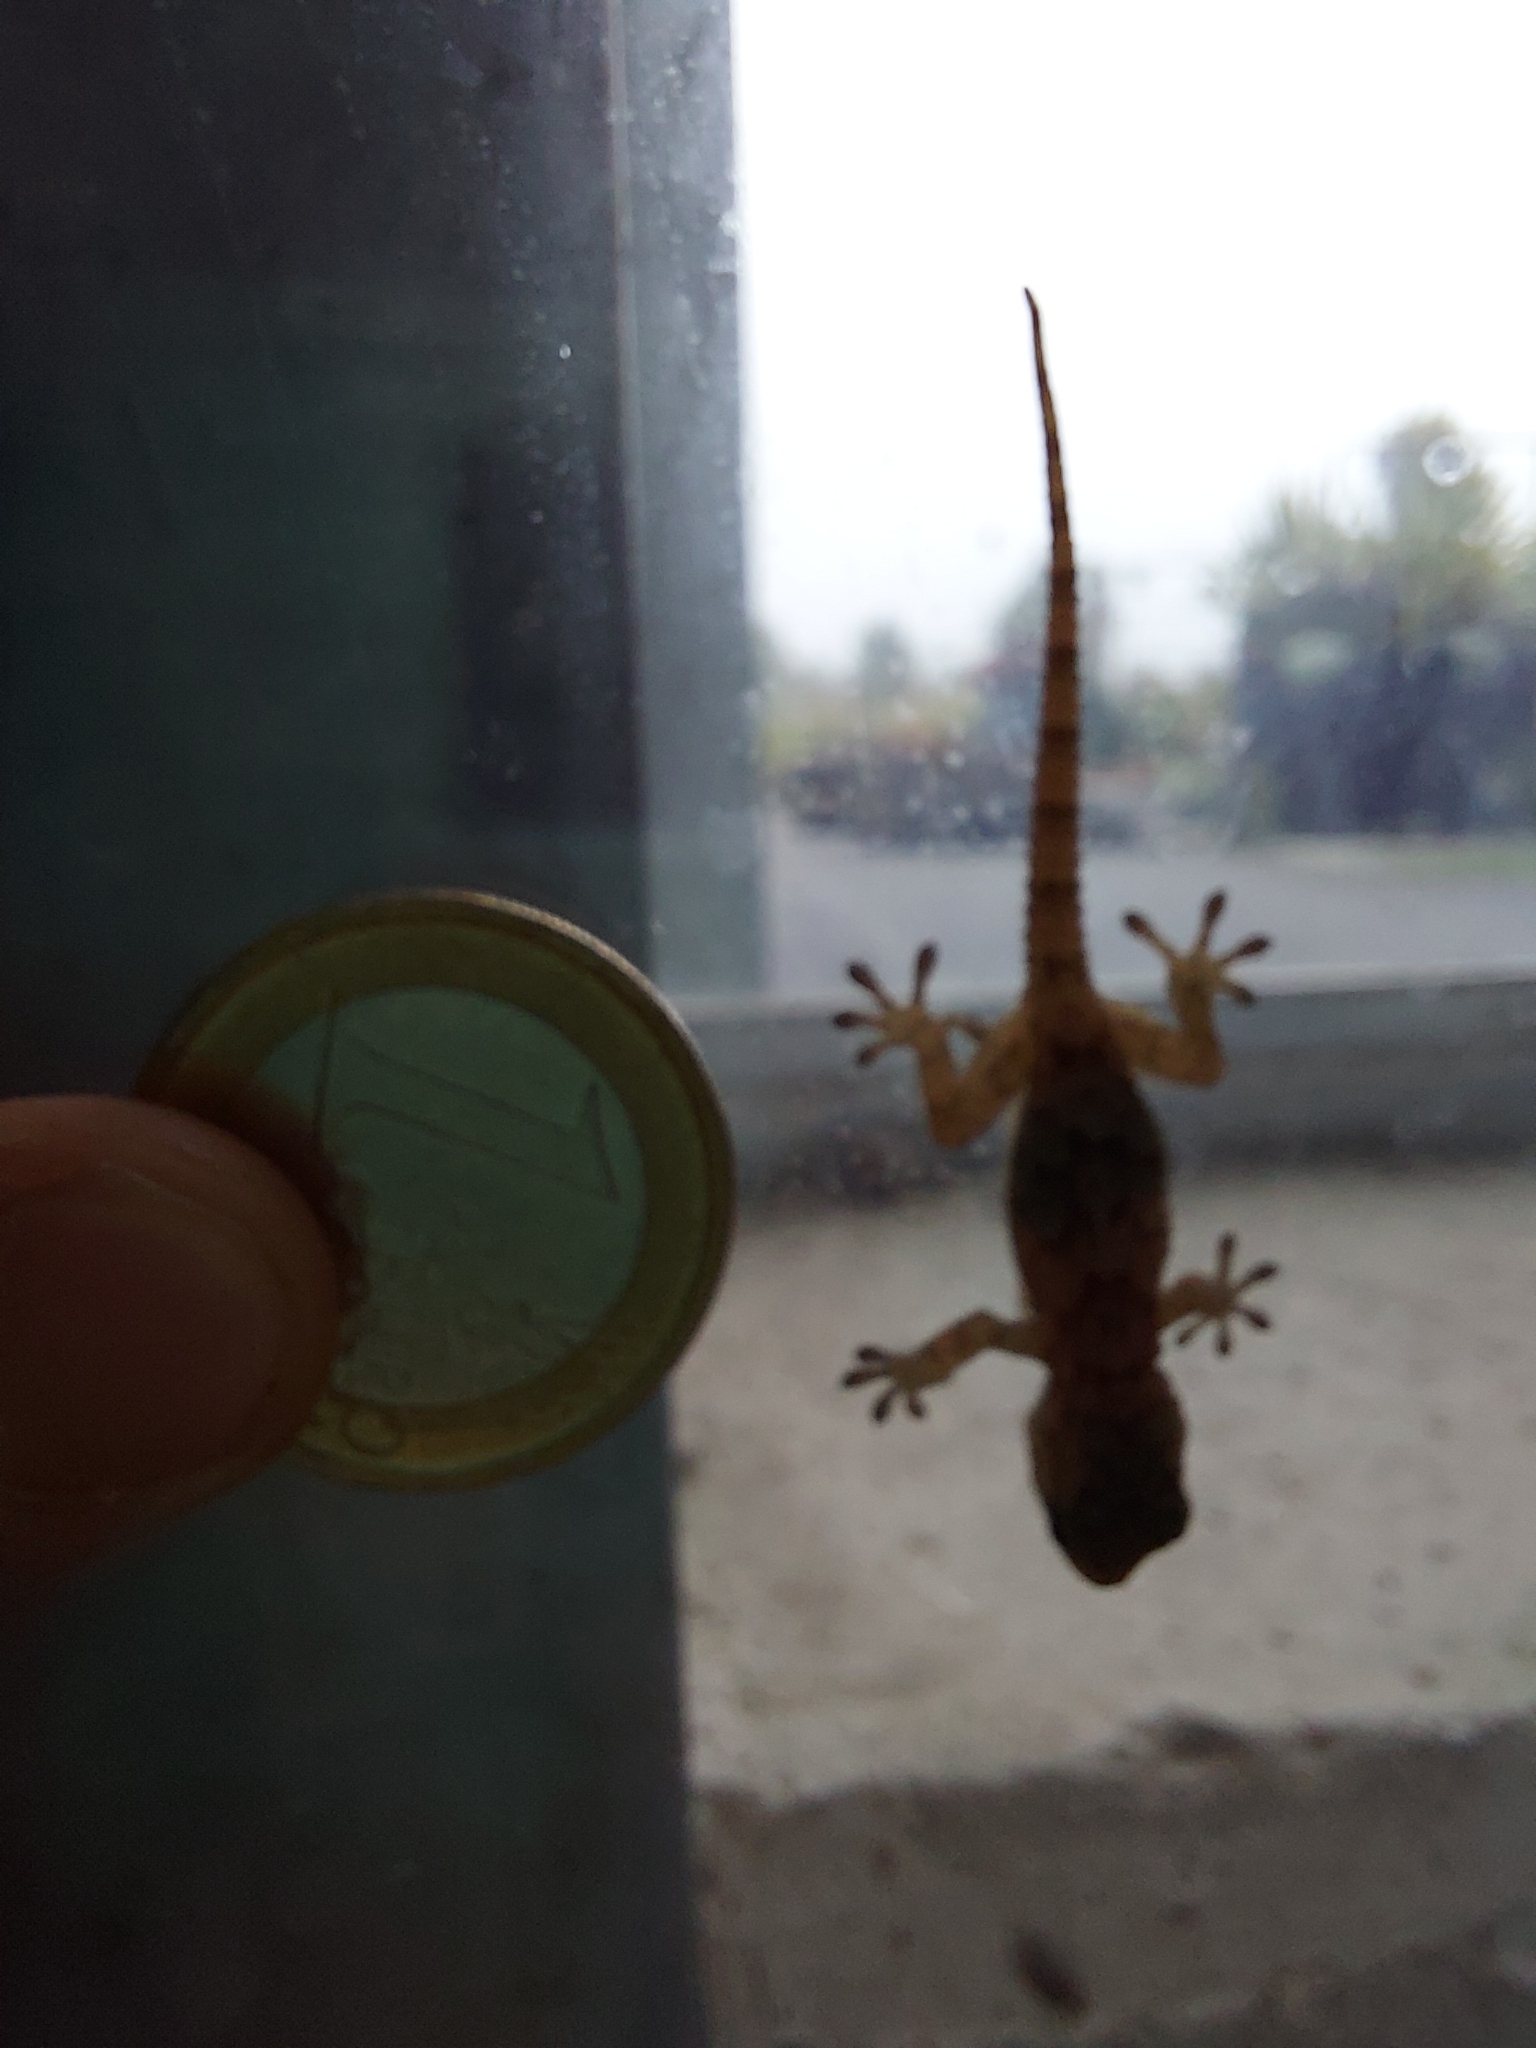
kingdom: Animalia
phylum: Chordata
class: Squamata
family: Phyllodactylidae
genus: Tarentola
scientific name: Tarentola mauritanica
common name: Moorish gecko
